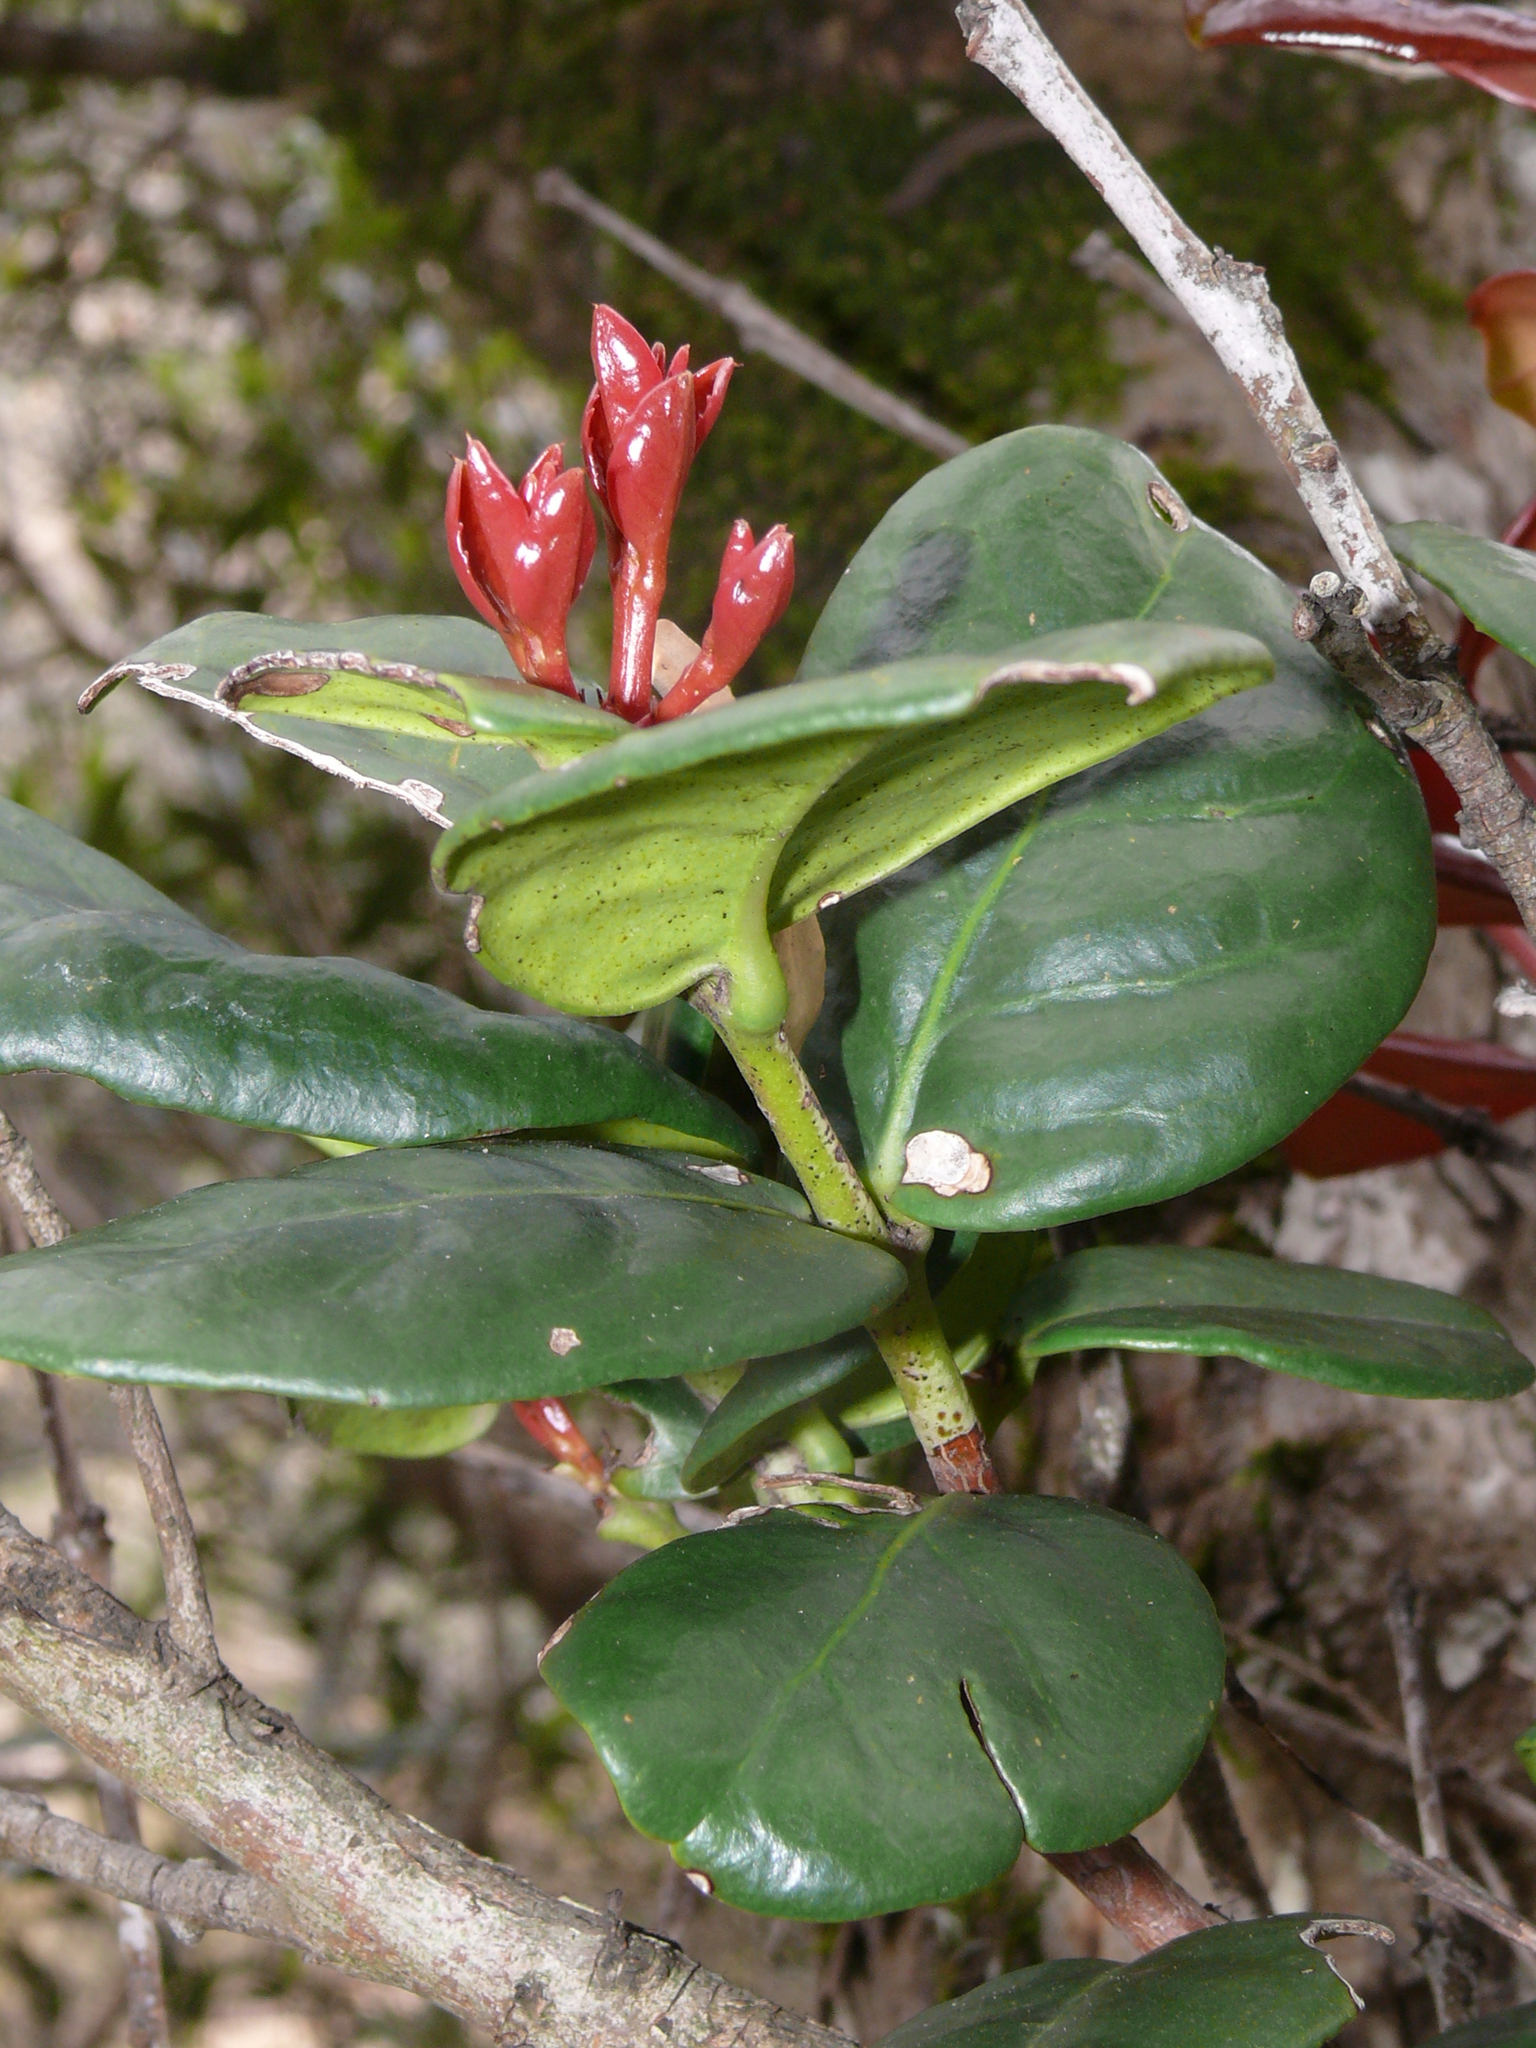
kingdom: Plantae
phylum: Tracheophyta
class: Magnoliopsida
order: Celastrales
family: Celastraceae
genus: Maurocenia
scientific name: Maurocenia frangula
